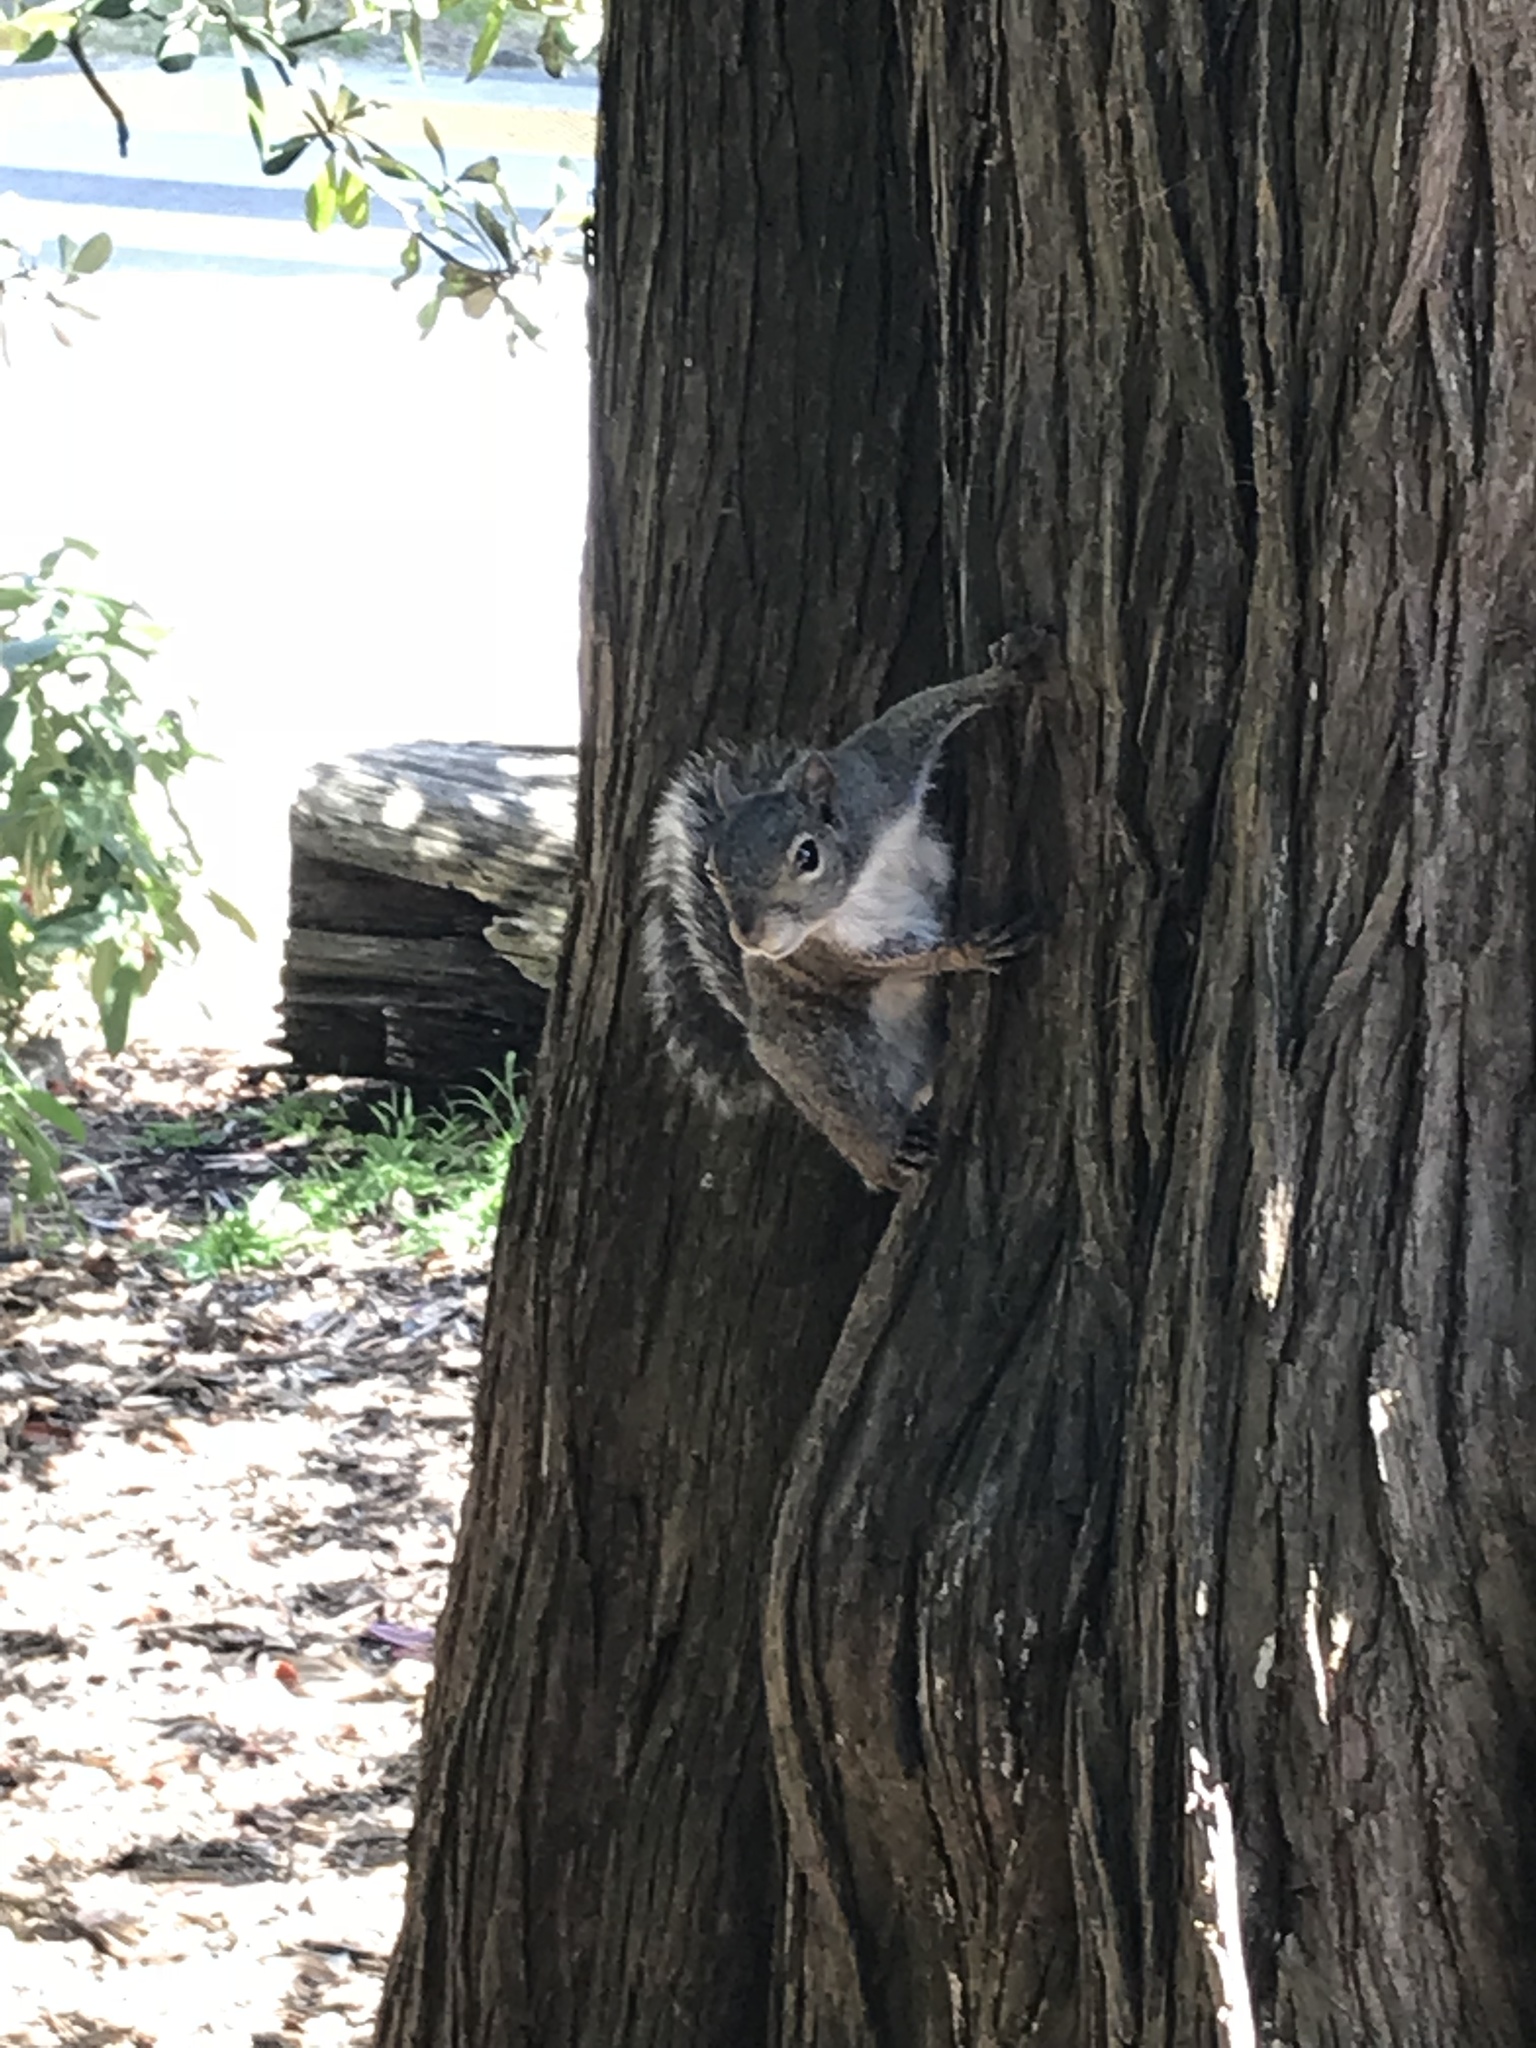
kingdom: Animalia
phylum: Chordata
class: Mammalia
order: Rodentia
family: Sciuridae
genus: Sciurus
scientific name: Sciurus carolinensis
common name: Eastern gray squirrel
